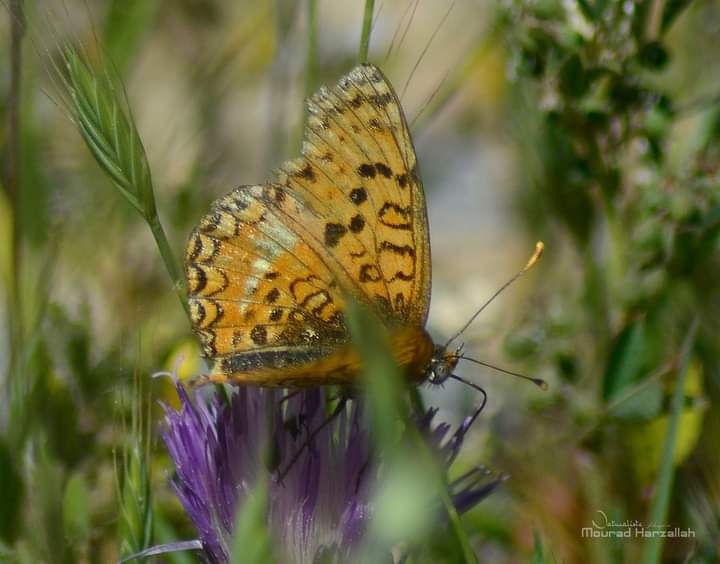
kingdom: Animalia
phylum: Arthropoda
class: Insecta
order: Lepidoptera
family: Nymphalidae
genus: Melitaea
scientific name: Melitaea aetherie
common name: Aetherie fritillary
